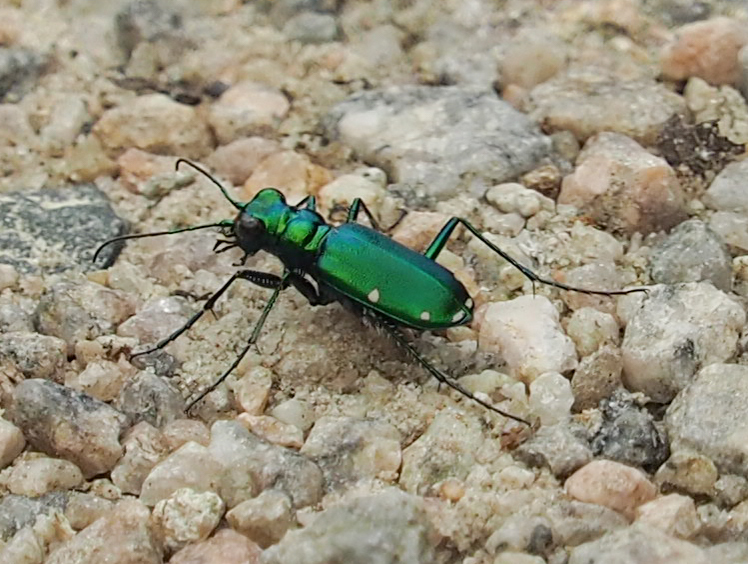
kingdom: Animalia
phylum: Arthropoda
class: Insecta
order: Coleoptera
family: Carabidae
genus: Cicindela
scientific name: Cicindela sexguttata
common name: Six-spotted tiger beetle
